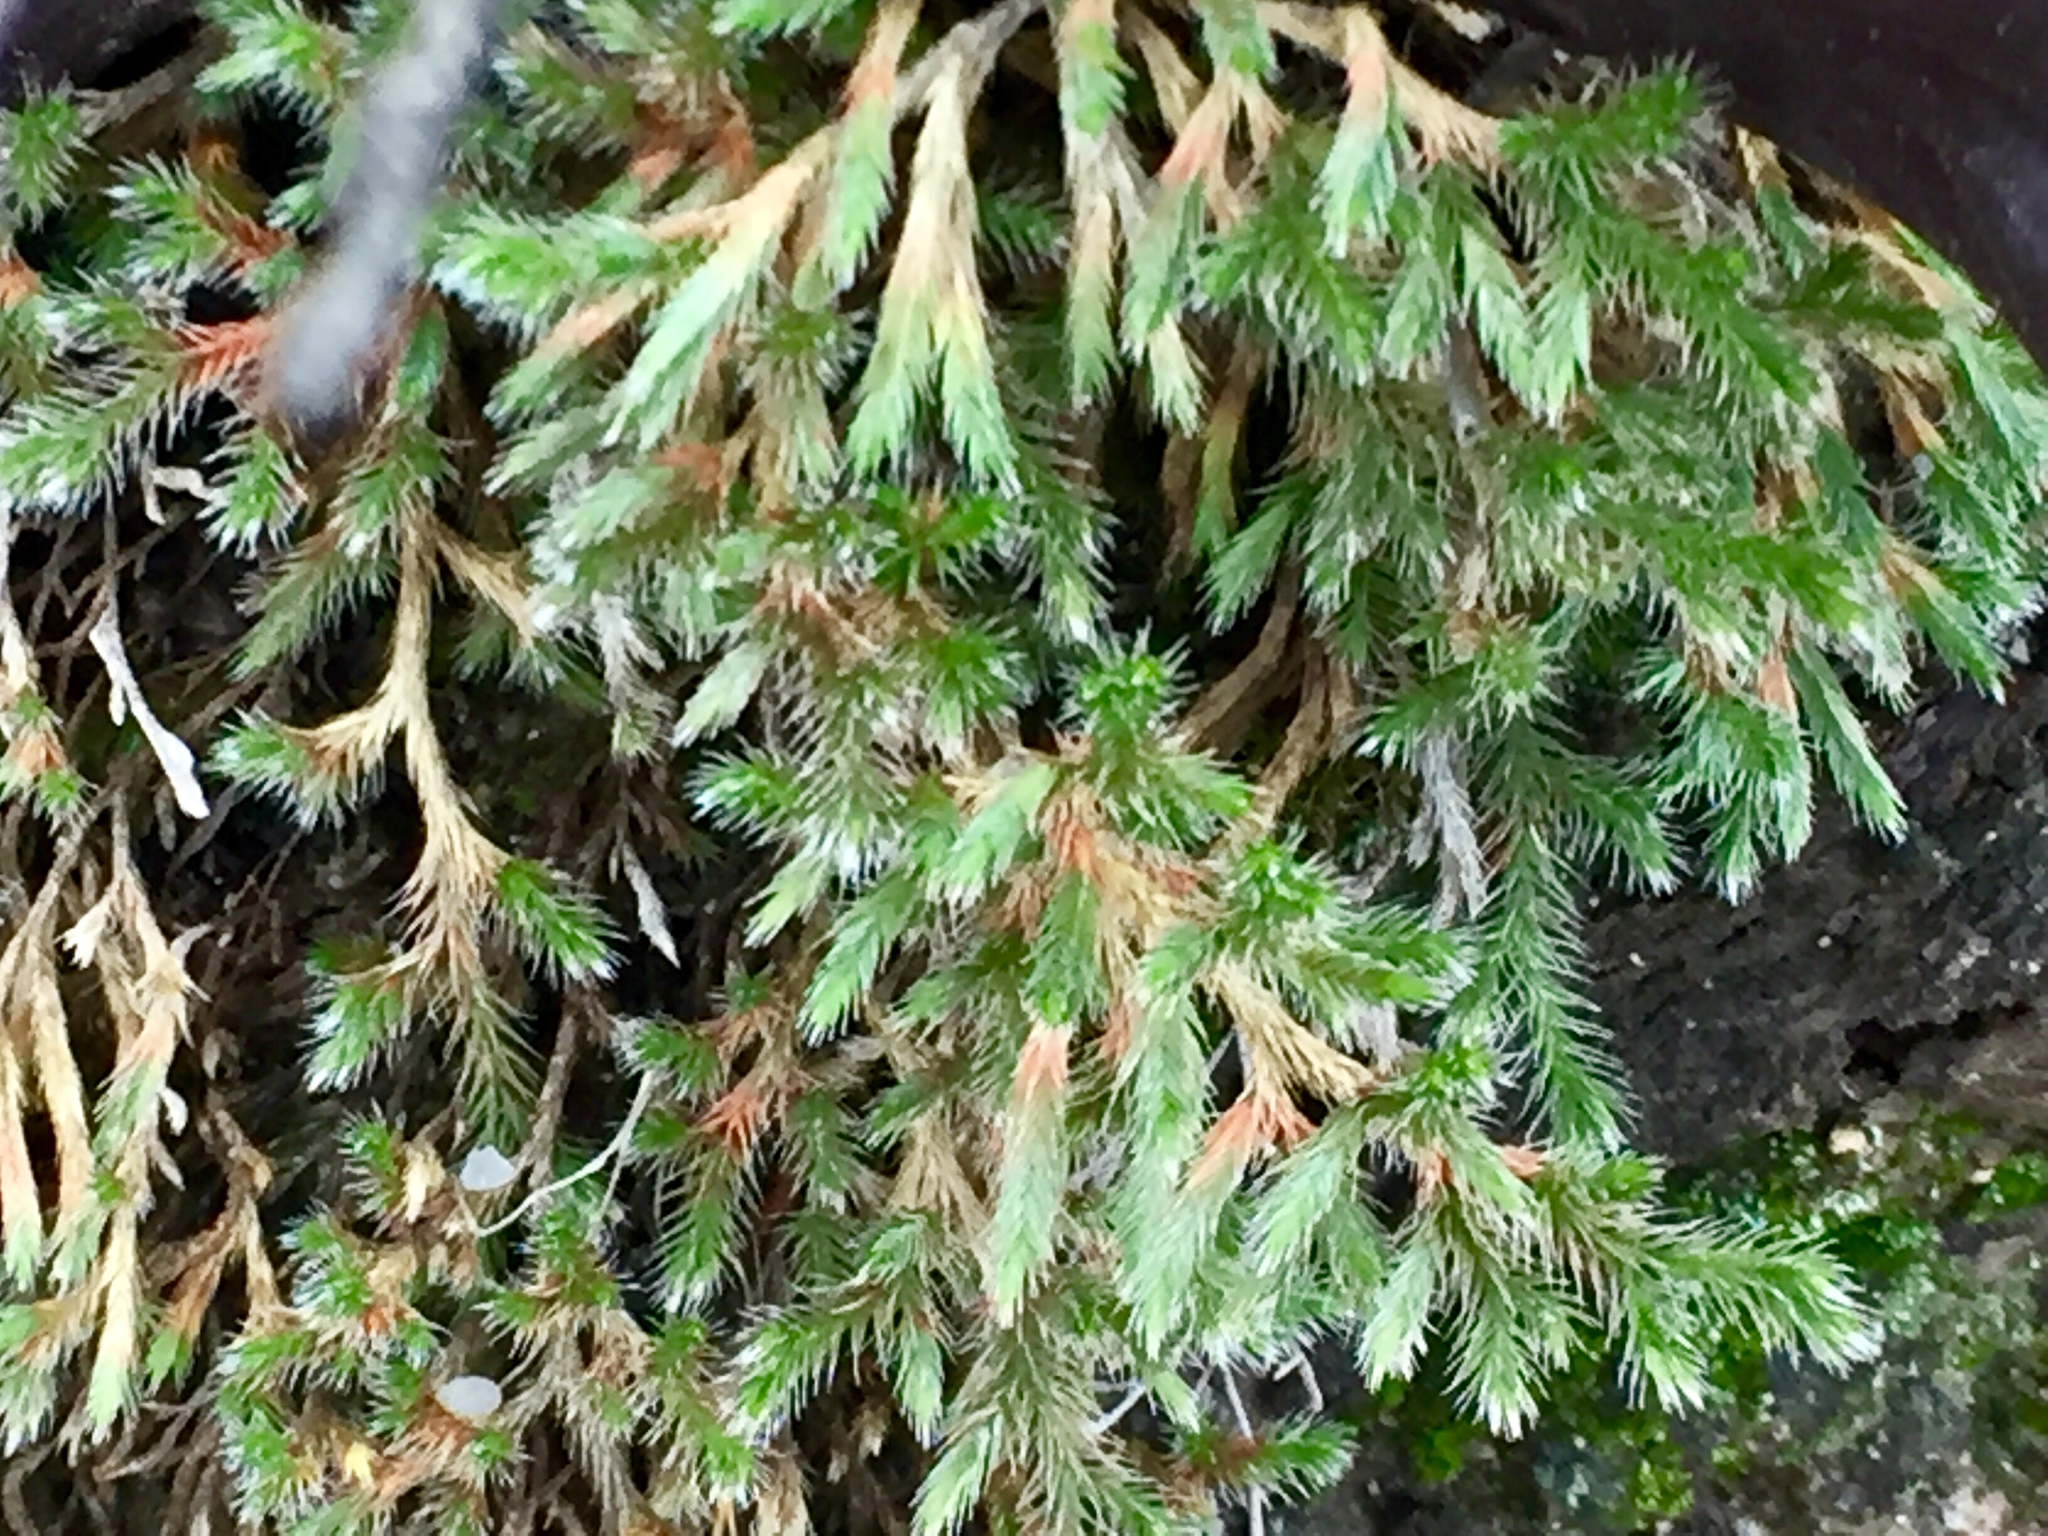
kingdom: Plantae
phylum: Tracheophyta
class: Lycopodiopsida
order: Selaginellales
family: Selaginellaceae
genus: Selaginella
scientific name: Selaginella rupincola
